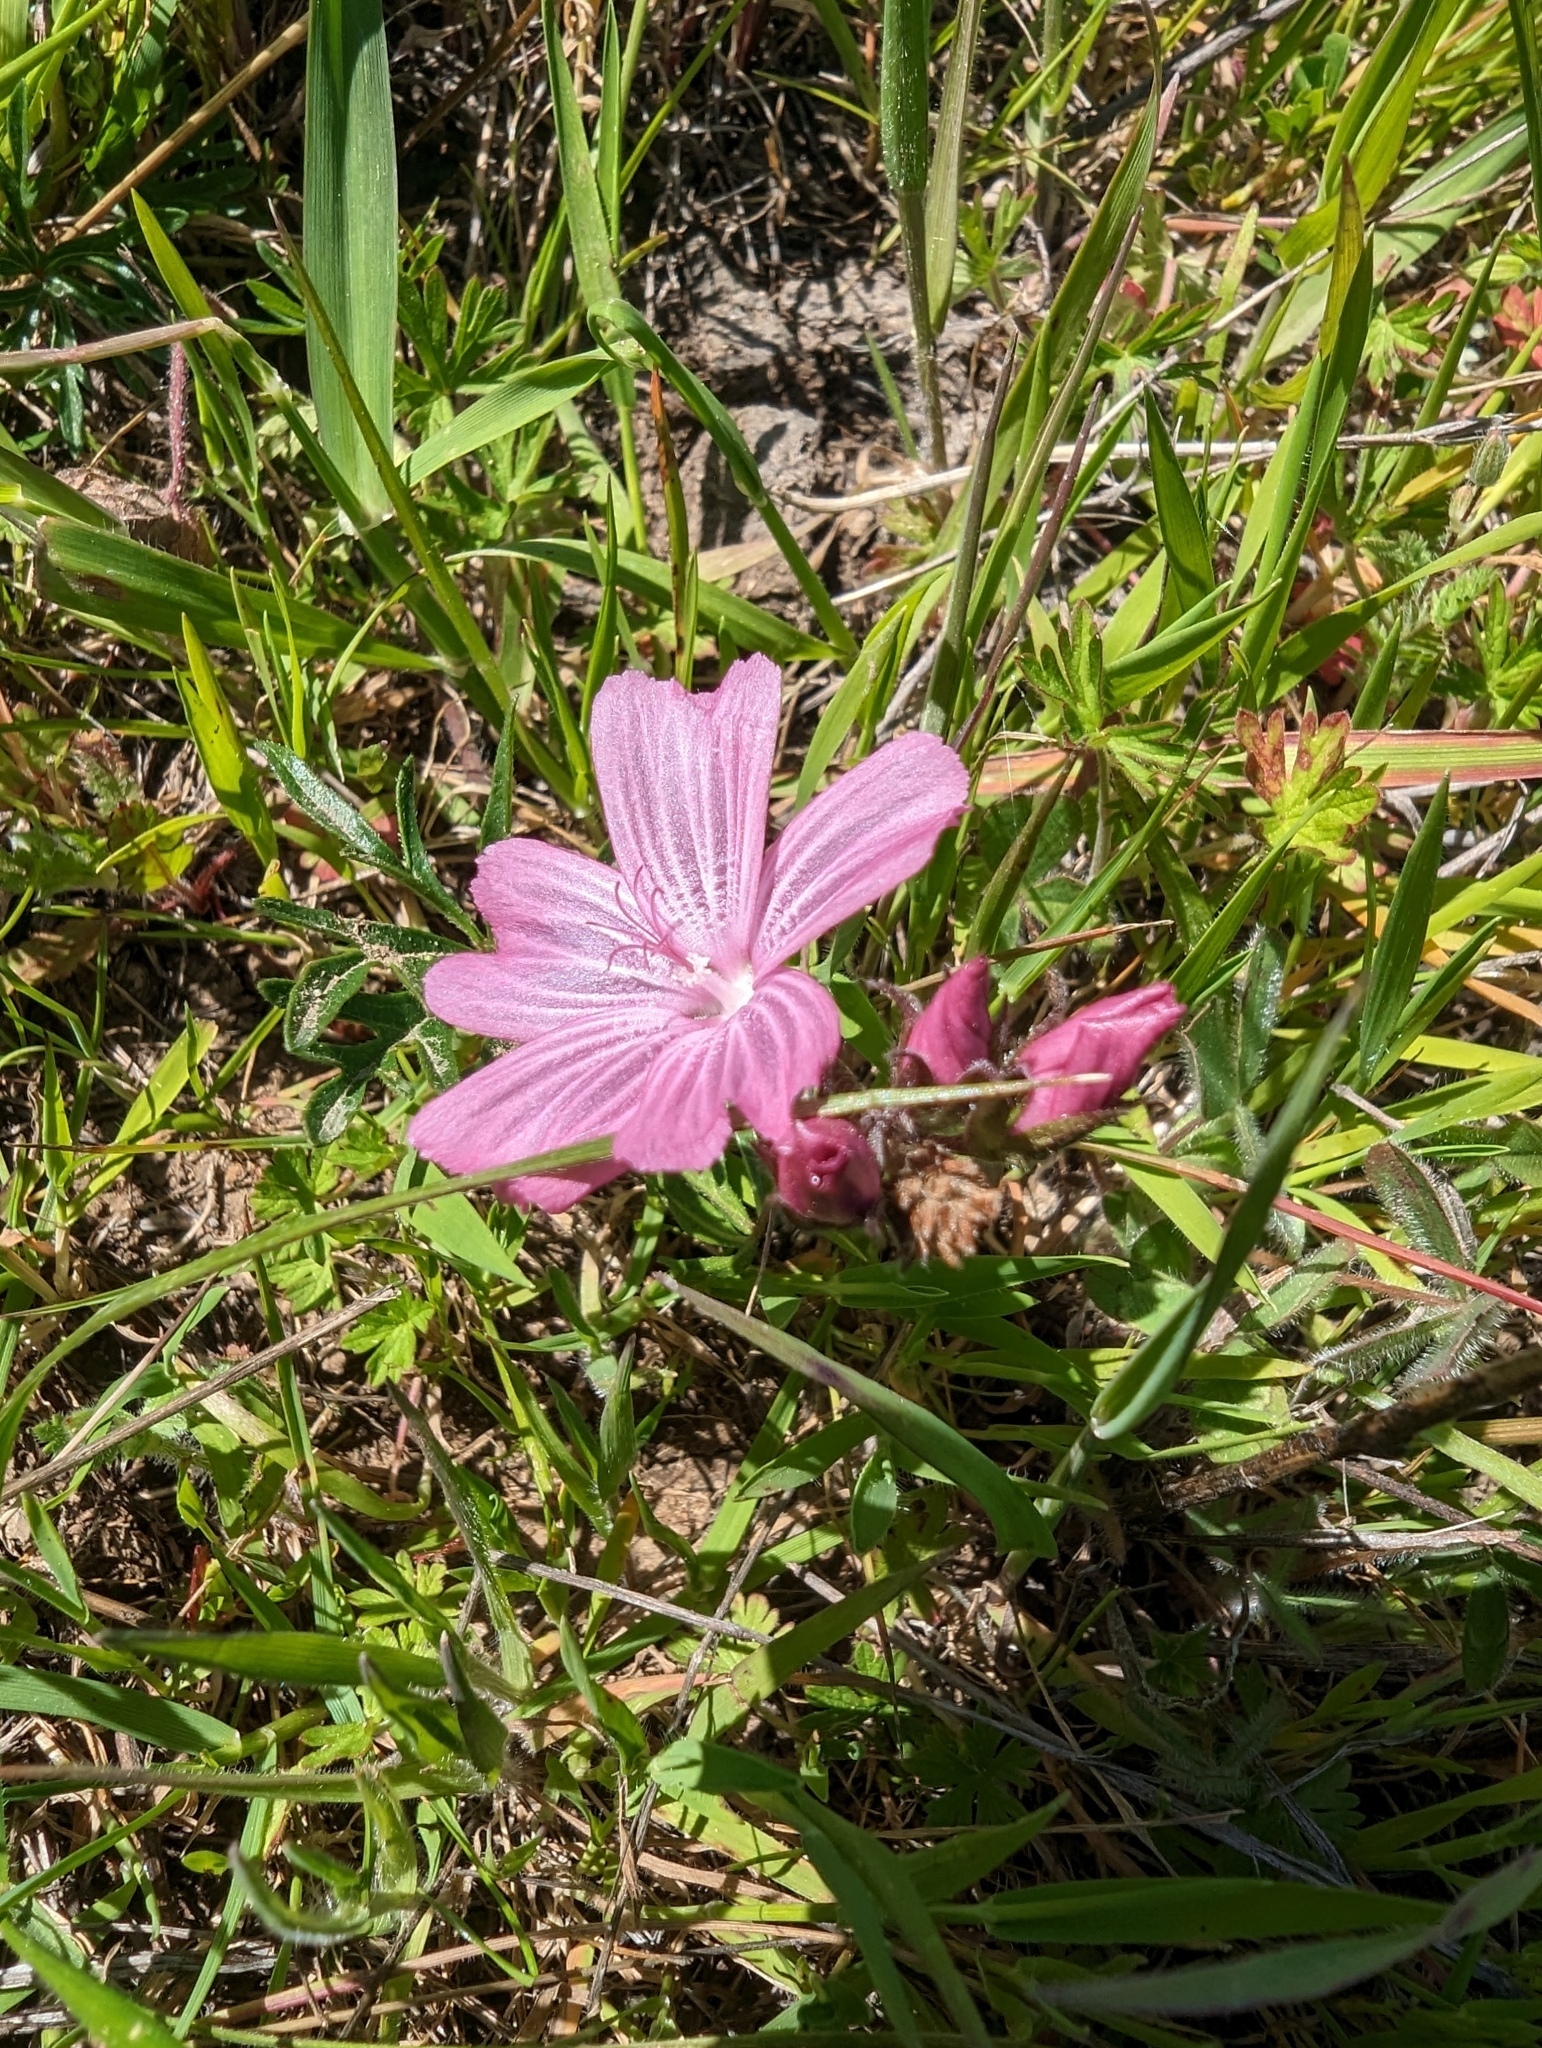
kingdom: Plantae
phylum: Tracheophyta
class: Magnoliopsida
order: Malvales
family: Malvaceae
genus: Sidalcea
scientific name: Sidalcea malviflora
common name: Greek mallow
